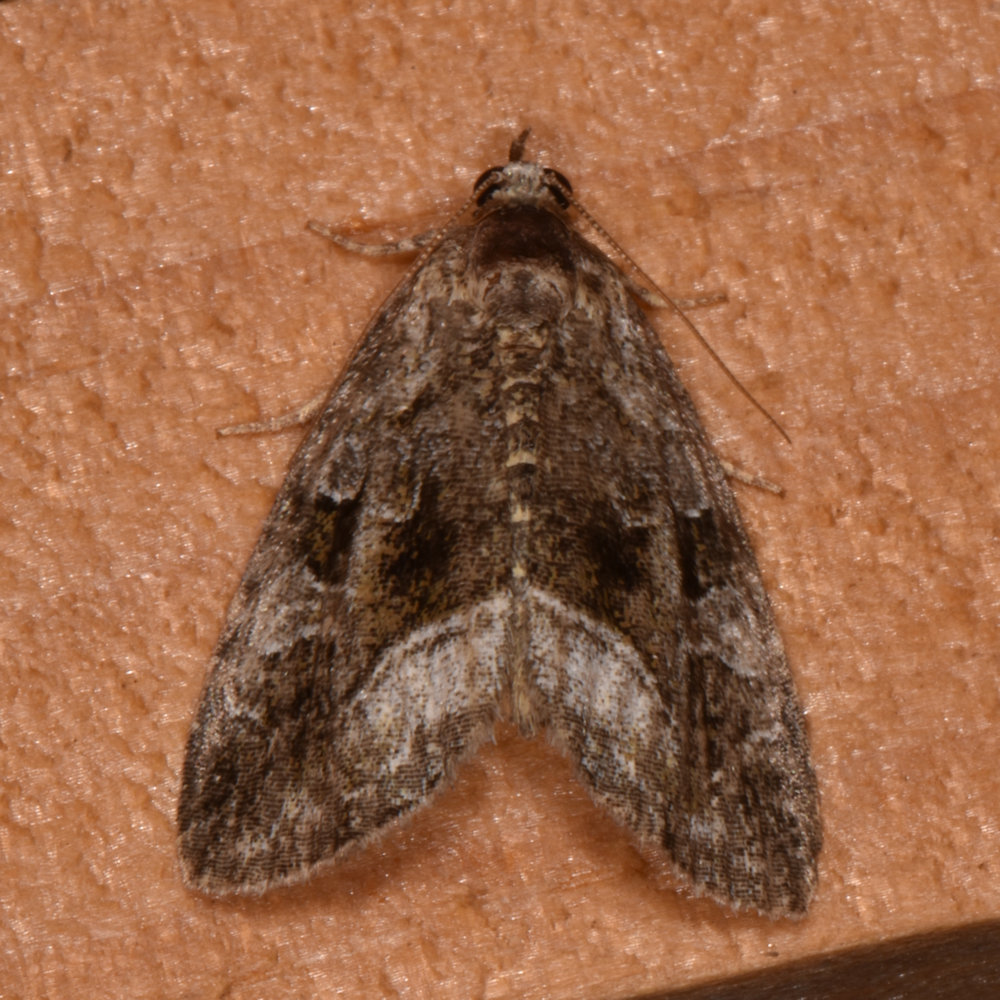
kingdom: Animalia
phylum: Arthropoda
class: Insecta
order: Lepidoptera
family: Noctuidae
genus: Protodeltote
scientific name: Protodeltote muscosula
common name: Large mossy glyph
